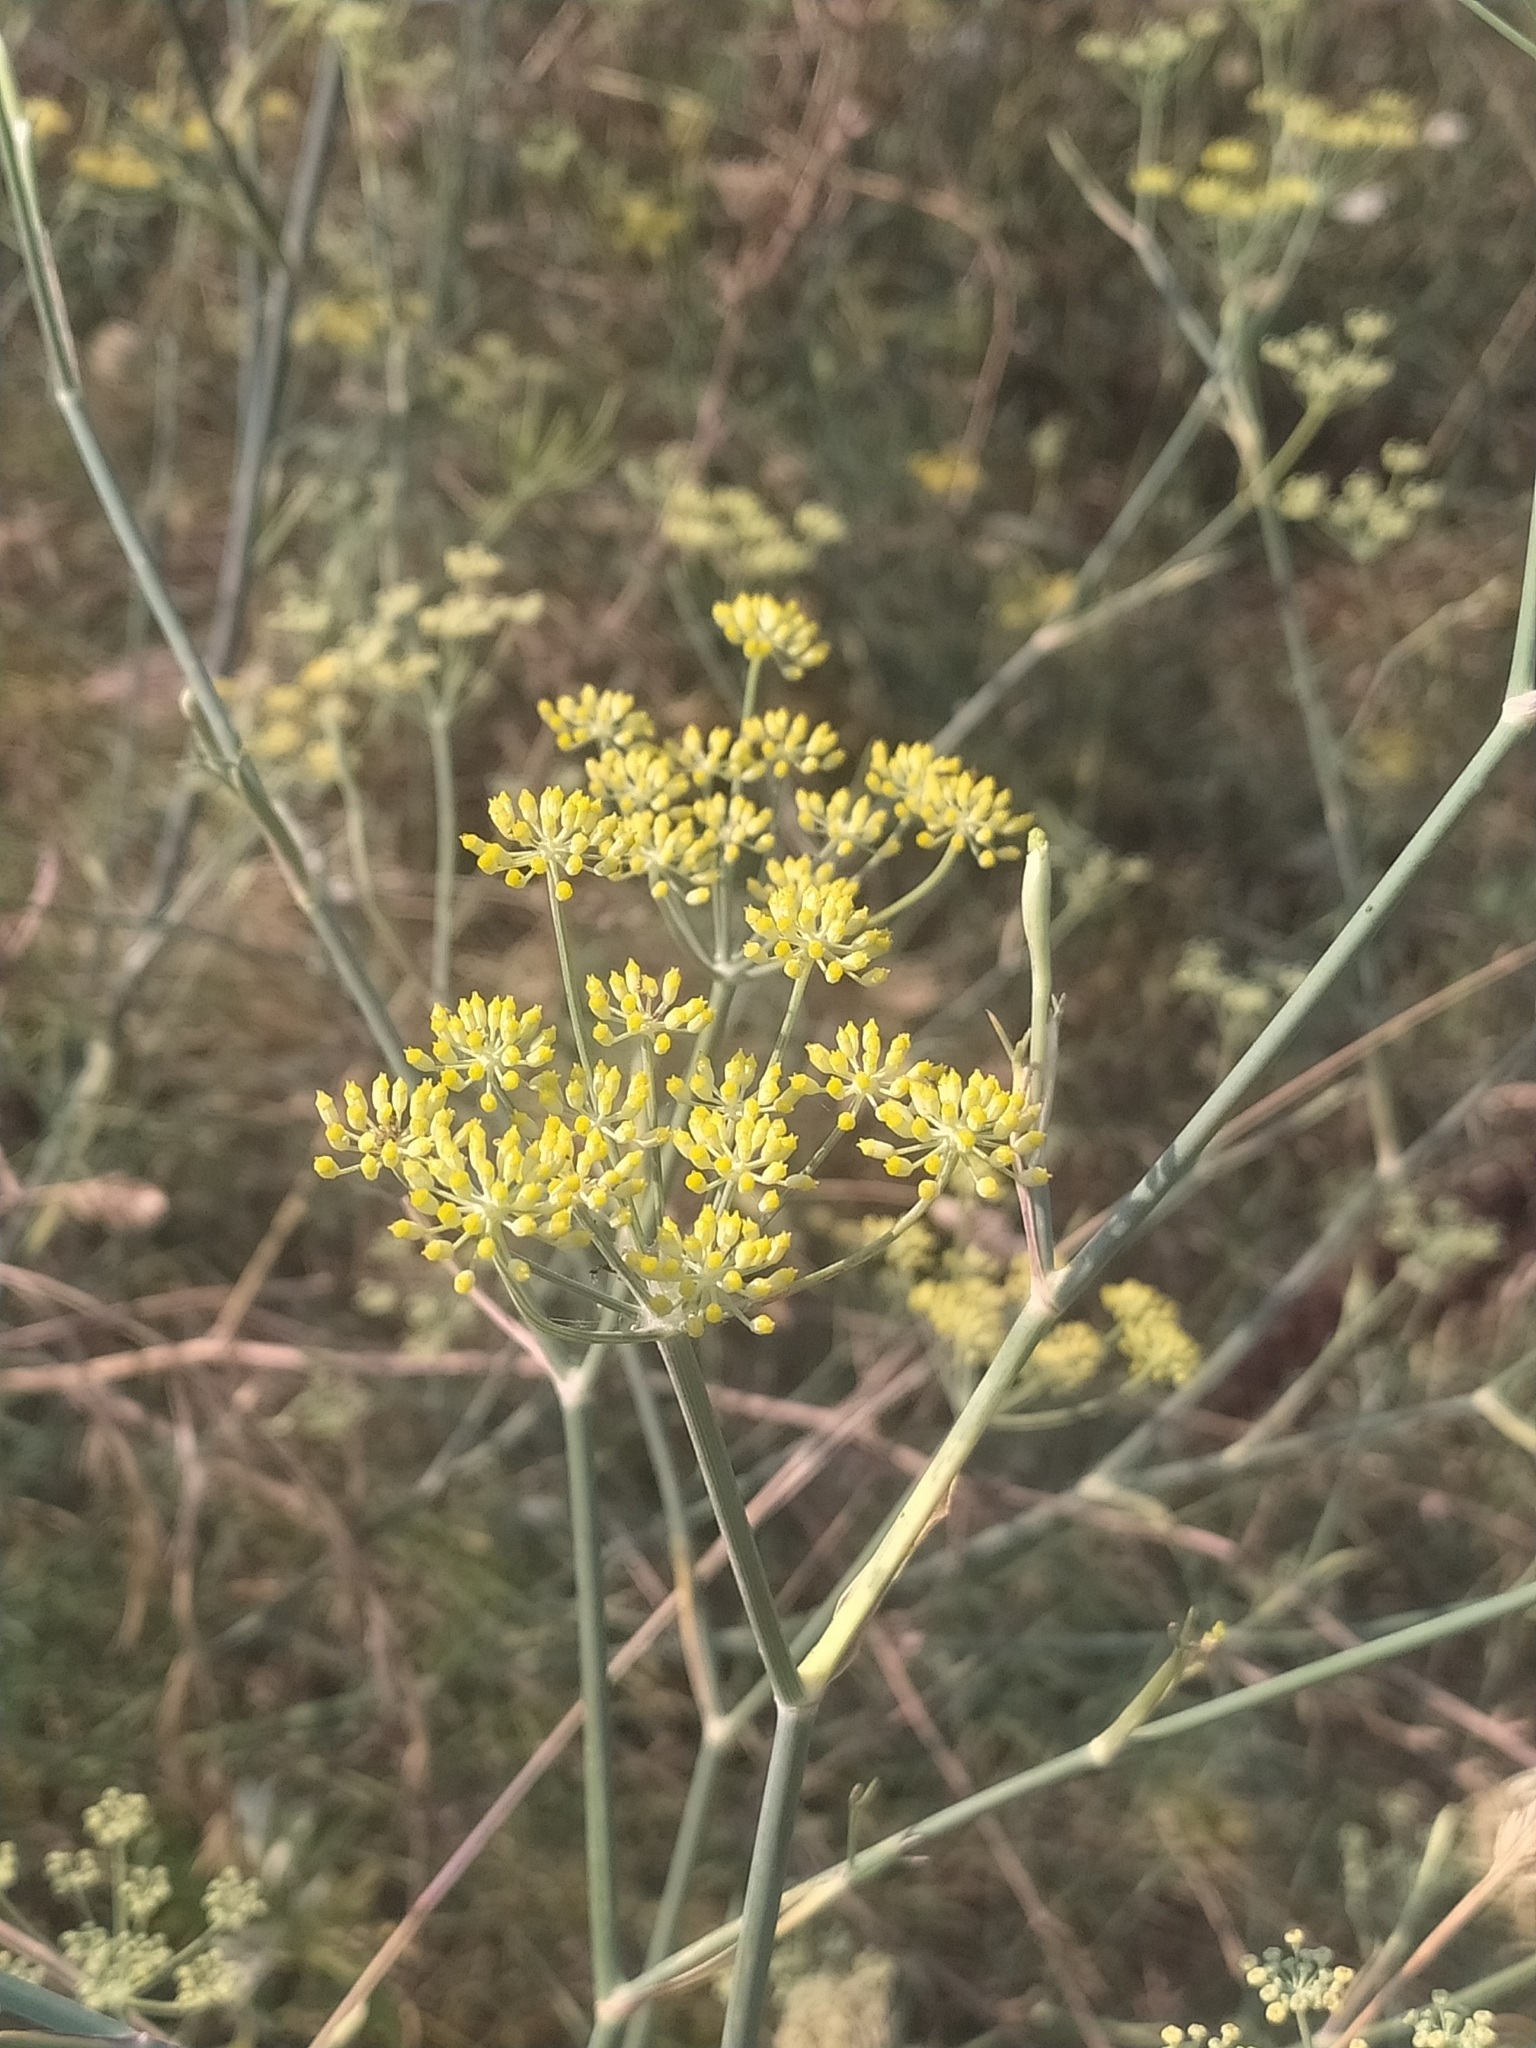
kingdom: Plantae
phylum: Tracheophyta
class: Magnoliopsida
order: Apiales
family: Apiaceae
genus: Foeniculum
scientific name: Foeniculum vulgare
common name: Fennel
